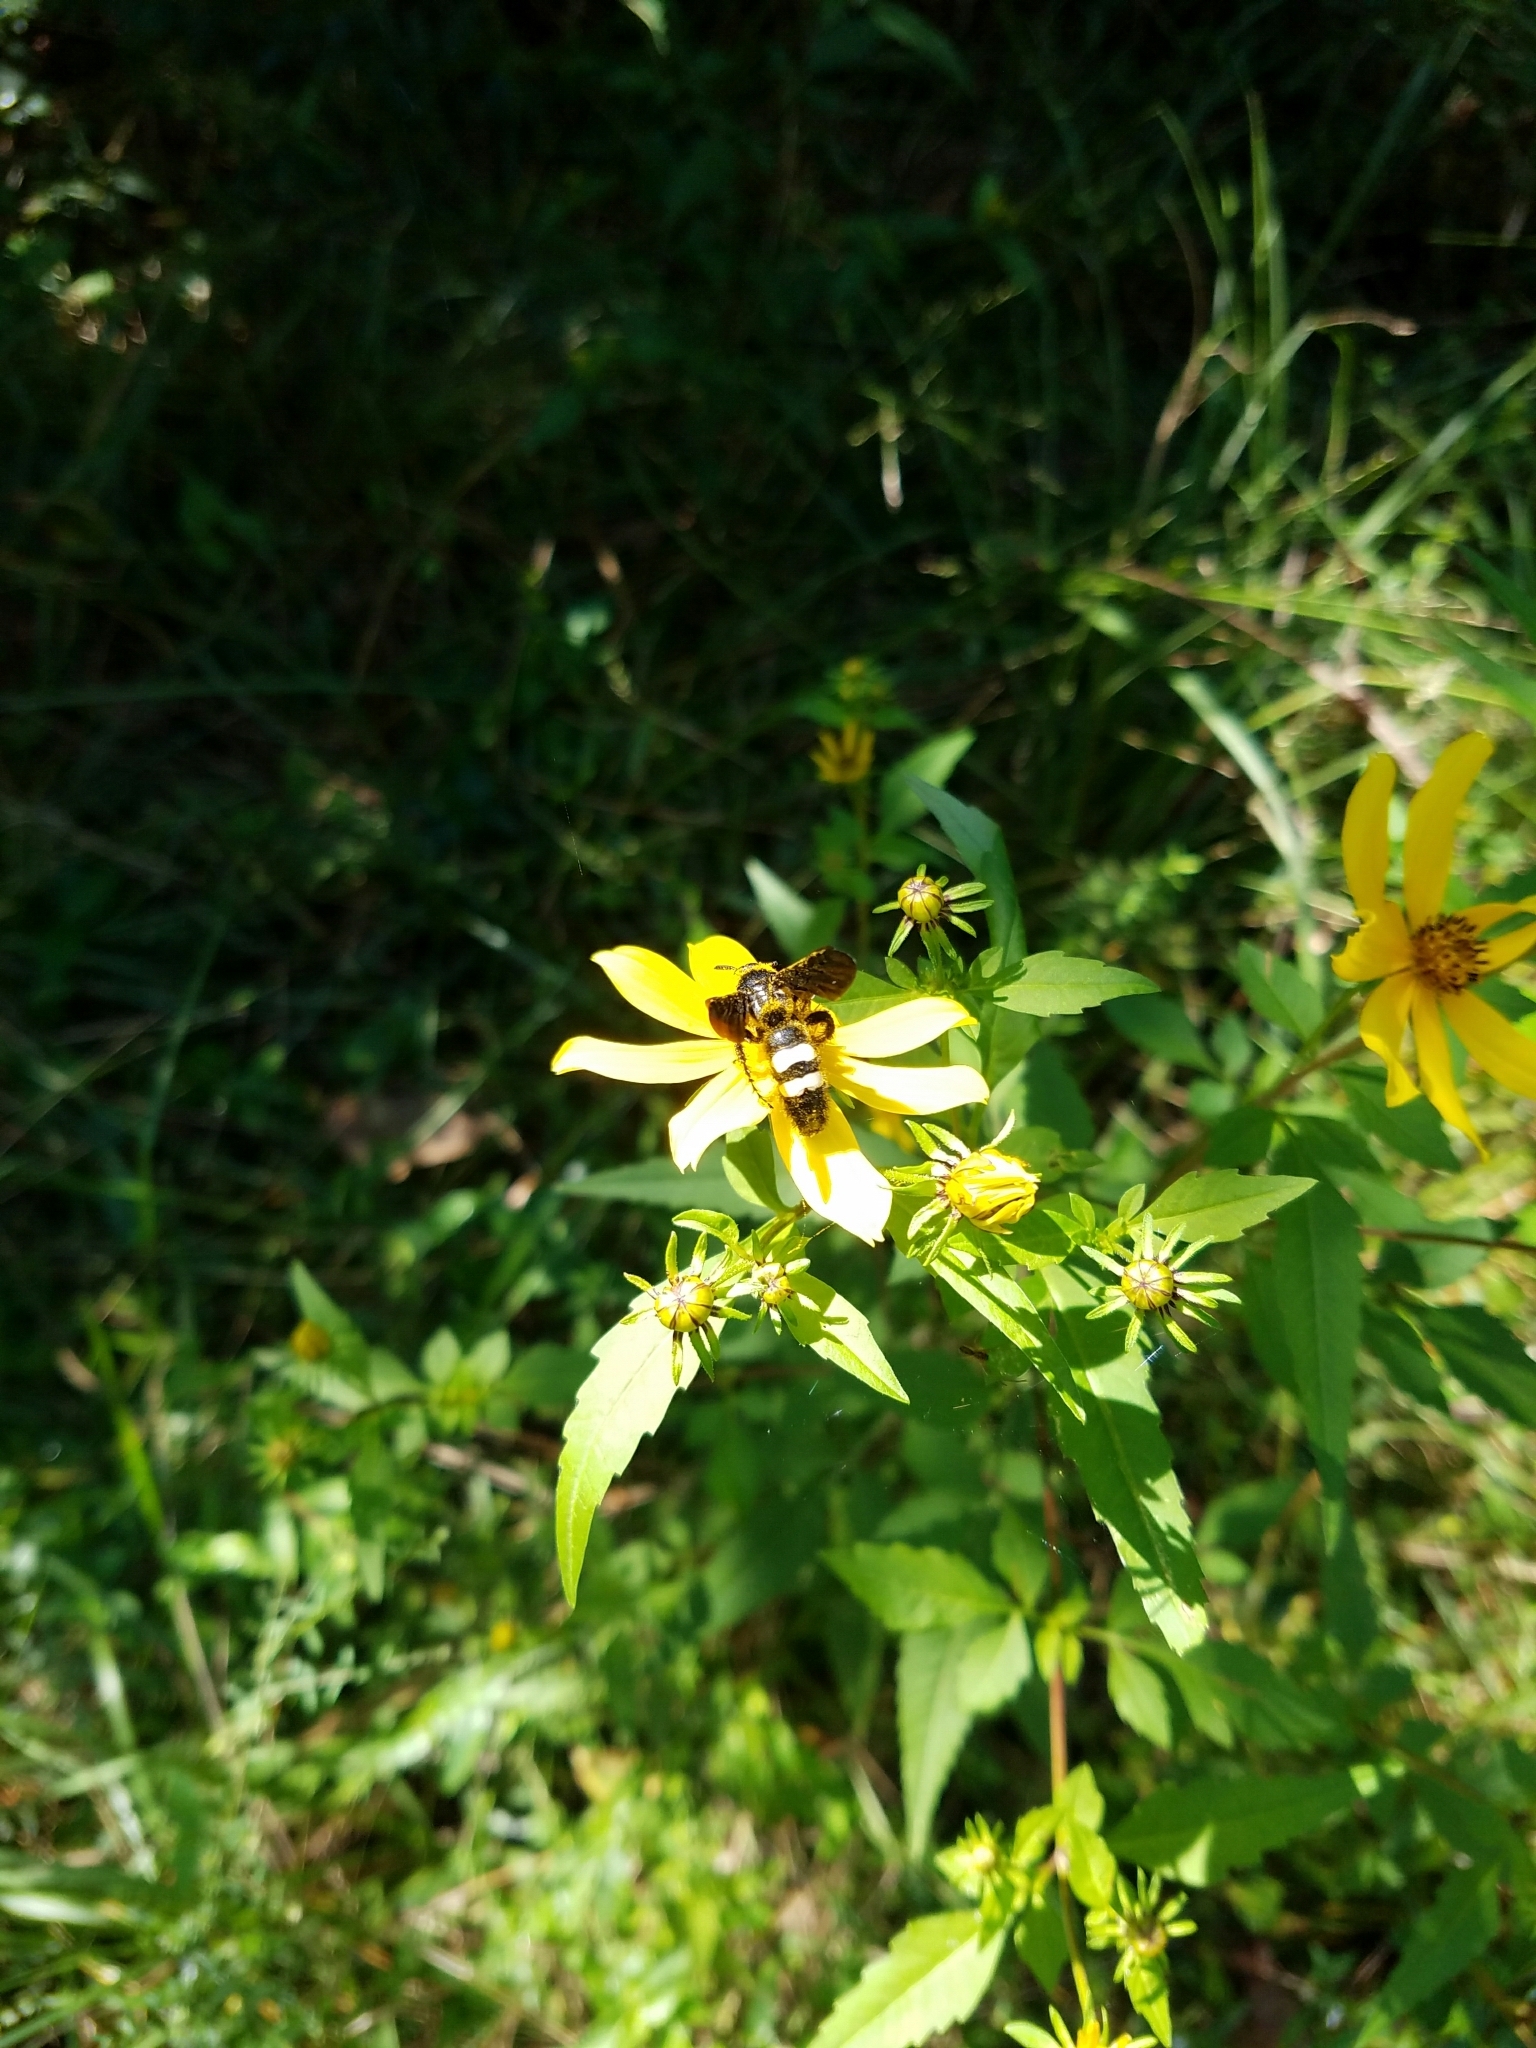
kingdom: Animalia
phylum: Arthropoda
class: Insecta
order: Hymenoptera
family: Scoliidae
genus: Scolia
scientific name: Scolia bicincta
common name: Double-banded scoliid wasp
